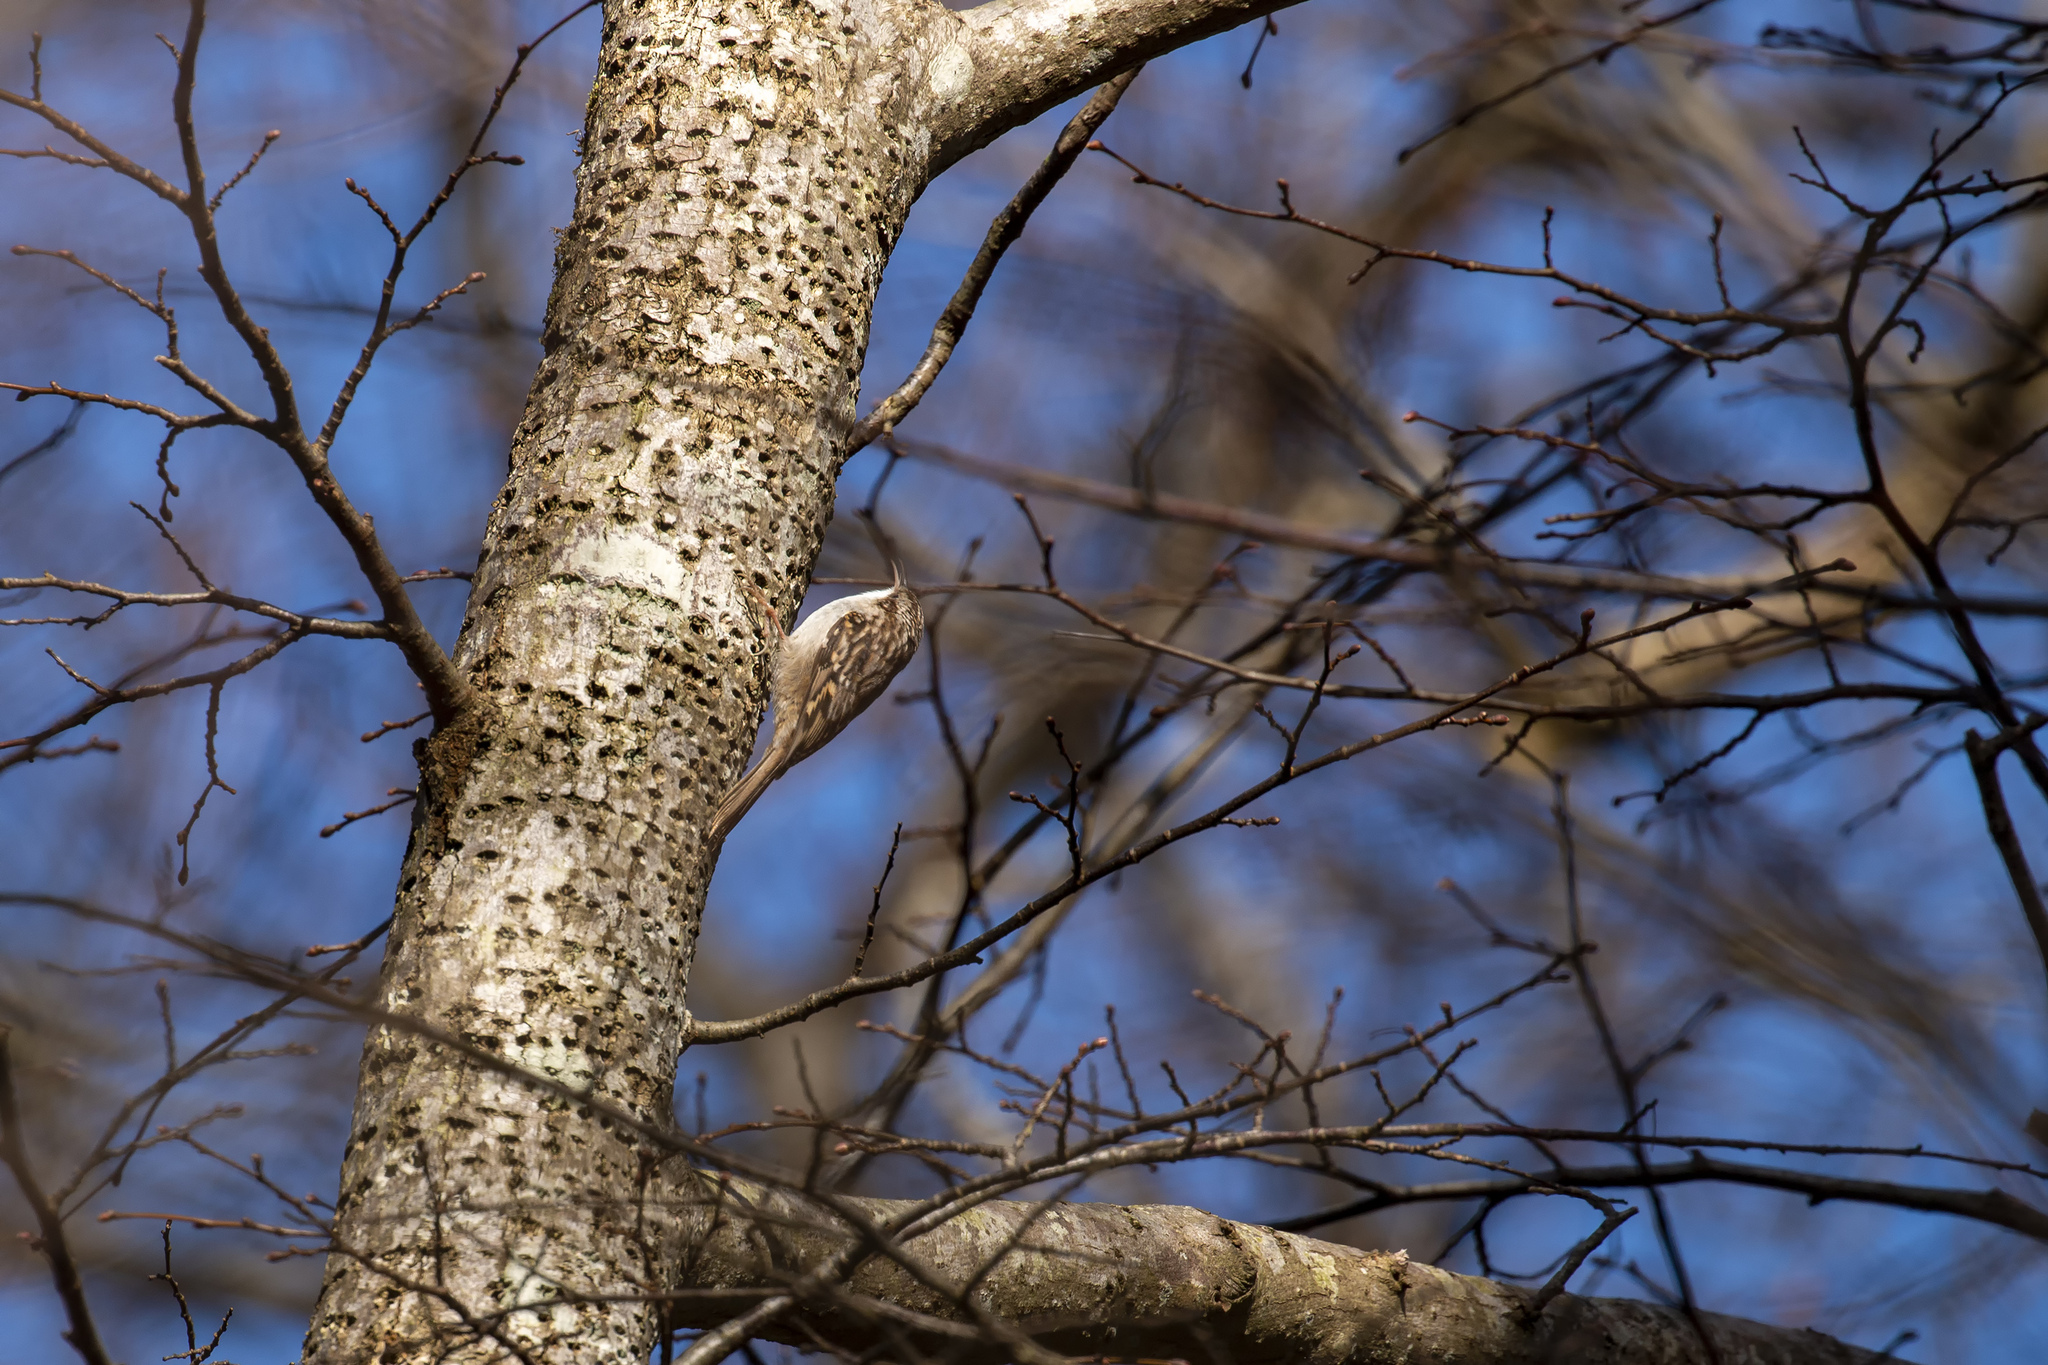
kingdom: Animalia
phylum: Chordata
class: Aves
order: Passeriformes
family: Certhiidae
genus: Certhia
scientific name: Certhia brachydactyla
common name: Short-toed treecreeper
